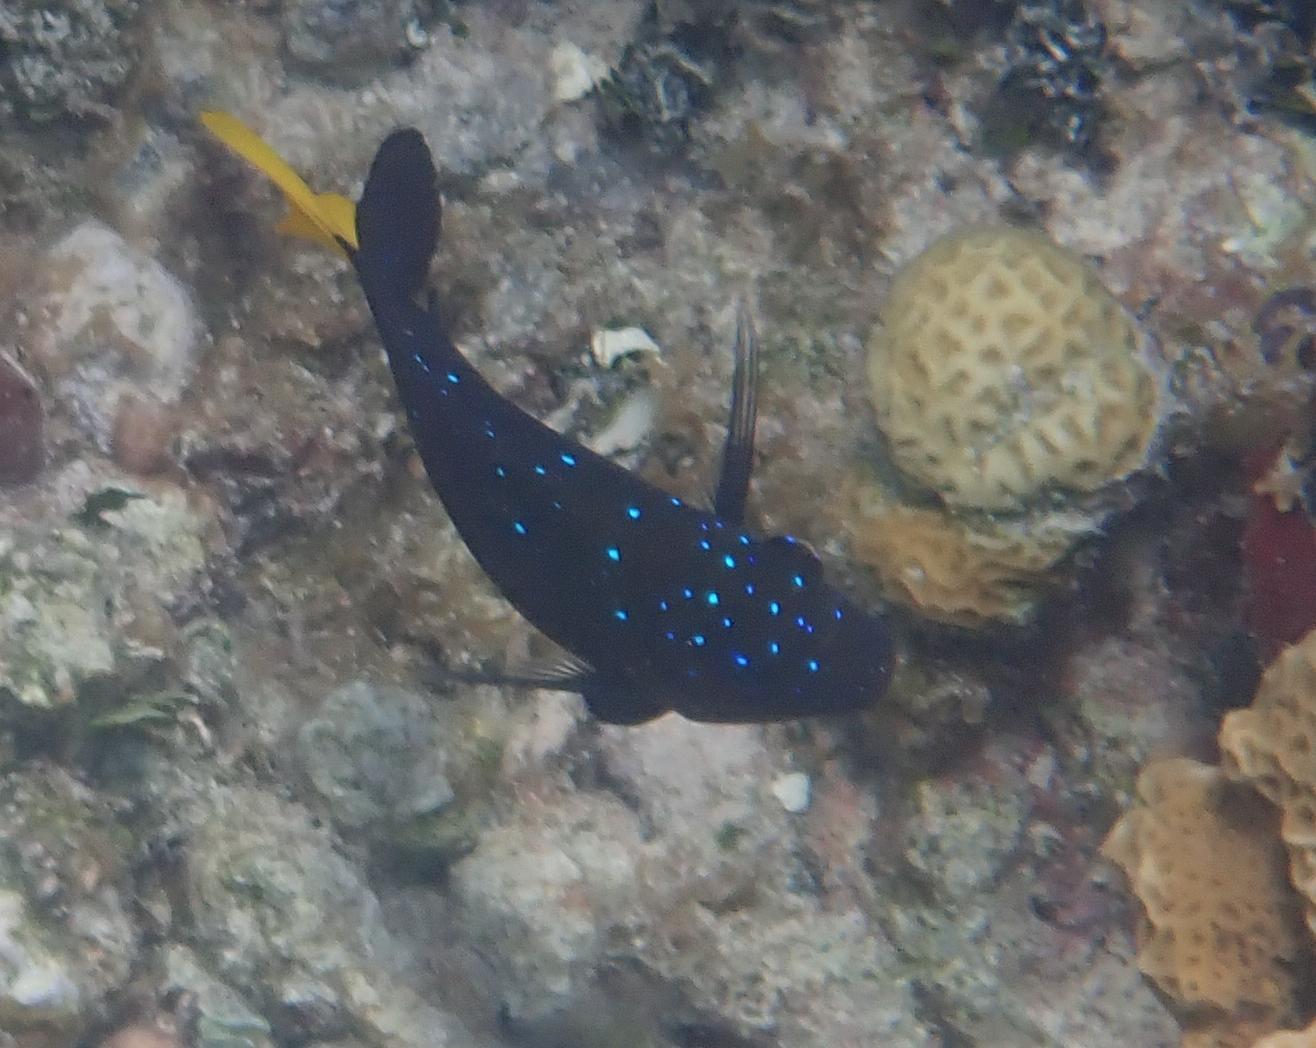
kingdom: Animalia
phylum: Chordata
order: Perciformes
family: Pomacentridae
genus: Microspathodon
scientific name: Microspathodon chrysurus
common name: Yellowtail damselfish
